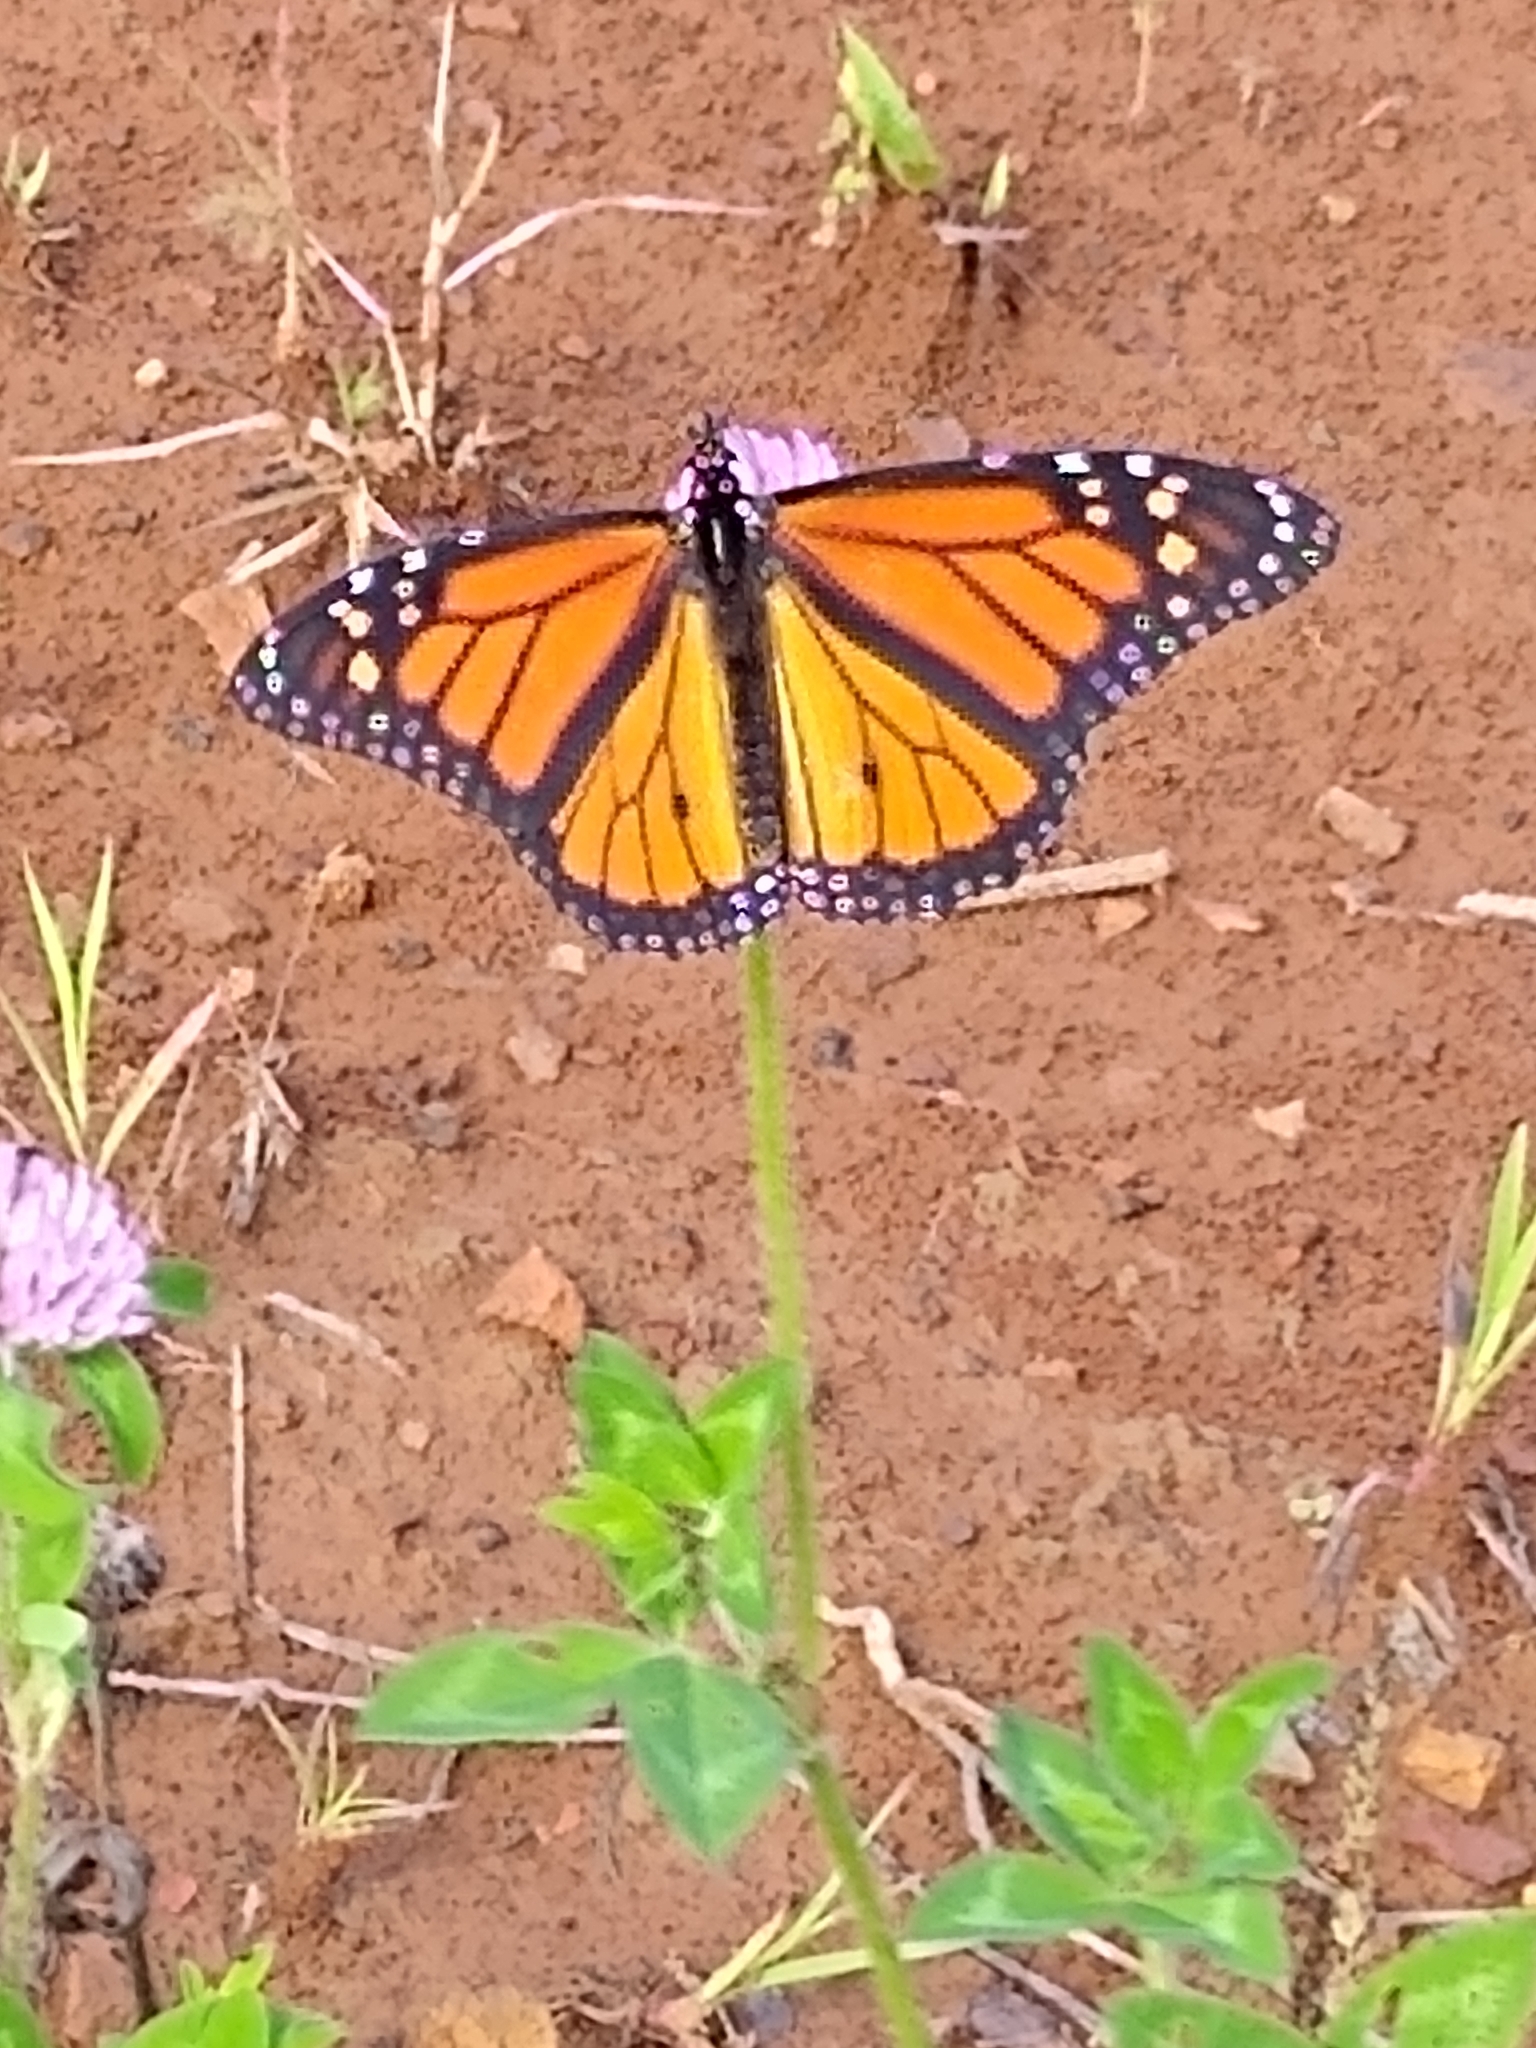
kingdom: Animalia
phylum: Arthropoda
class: Insecta
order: Lepidoptera
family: Nymphalidae
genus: Danaus
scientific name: Danaus plexippus
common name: Monarch
